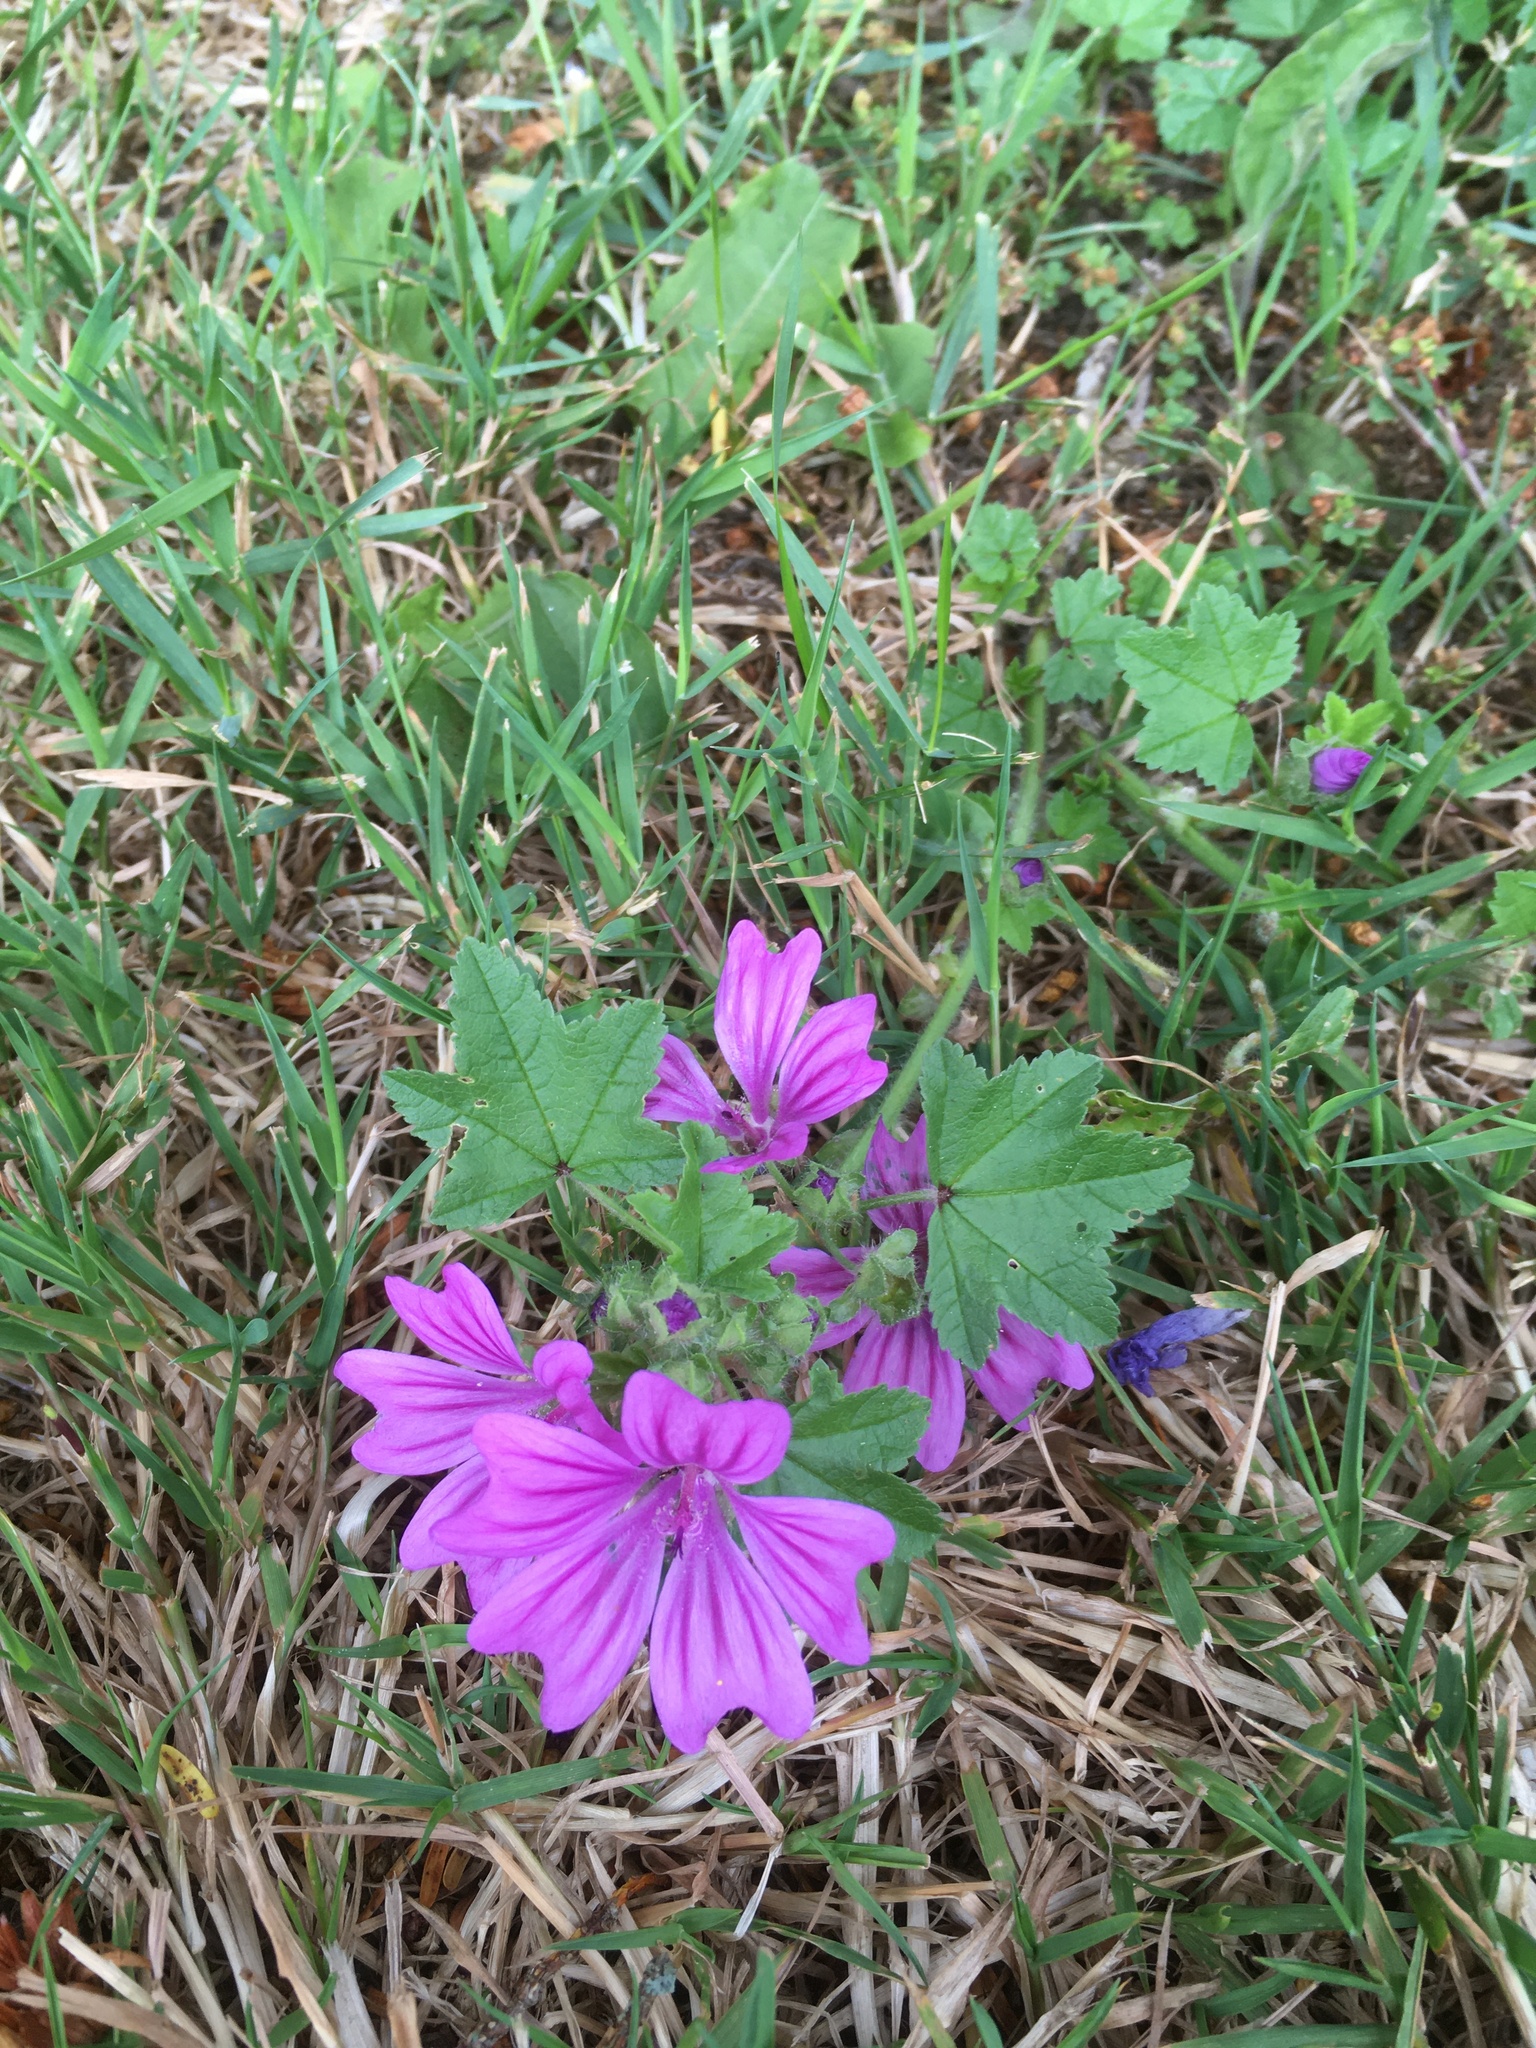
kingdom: Plantae
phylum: Tracheophyta
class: Magnoliopsida
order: Malvales
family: Malvaceae
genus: Malva
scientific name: Malva sylvestris
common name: Common mallow
